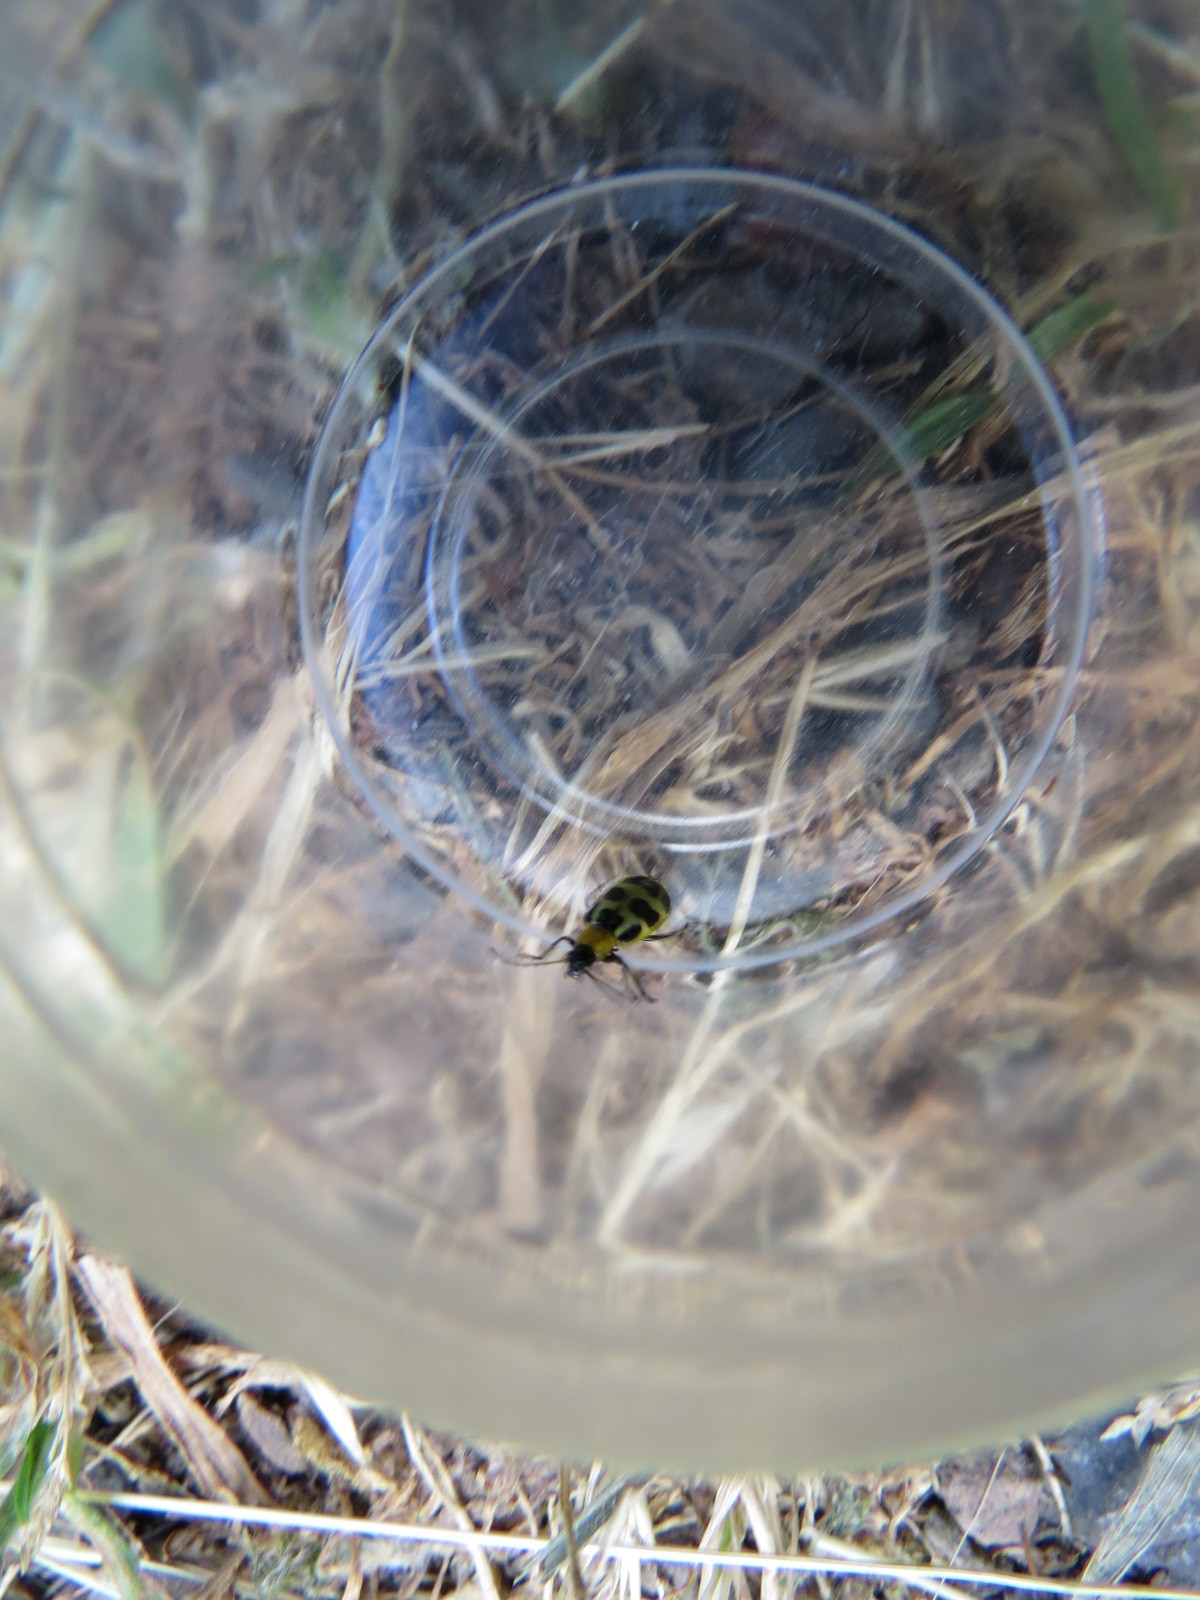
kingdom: Animalia
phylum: Arthropoda
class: Insecta
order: Coleoptera
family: Chrysomelidae
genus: Diabrotica
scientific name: Diabrotica undecimpunctata
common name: Spotted cucumber beetle
